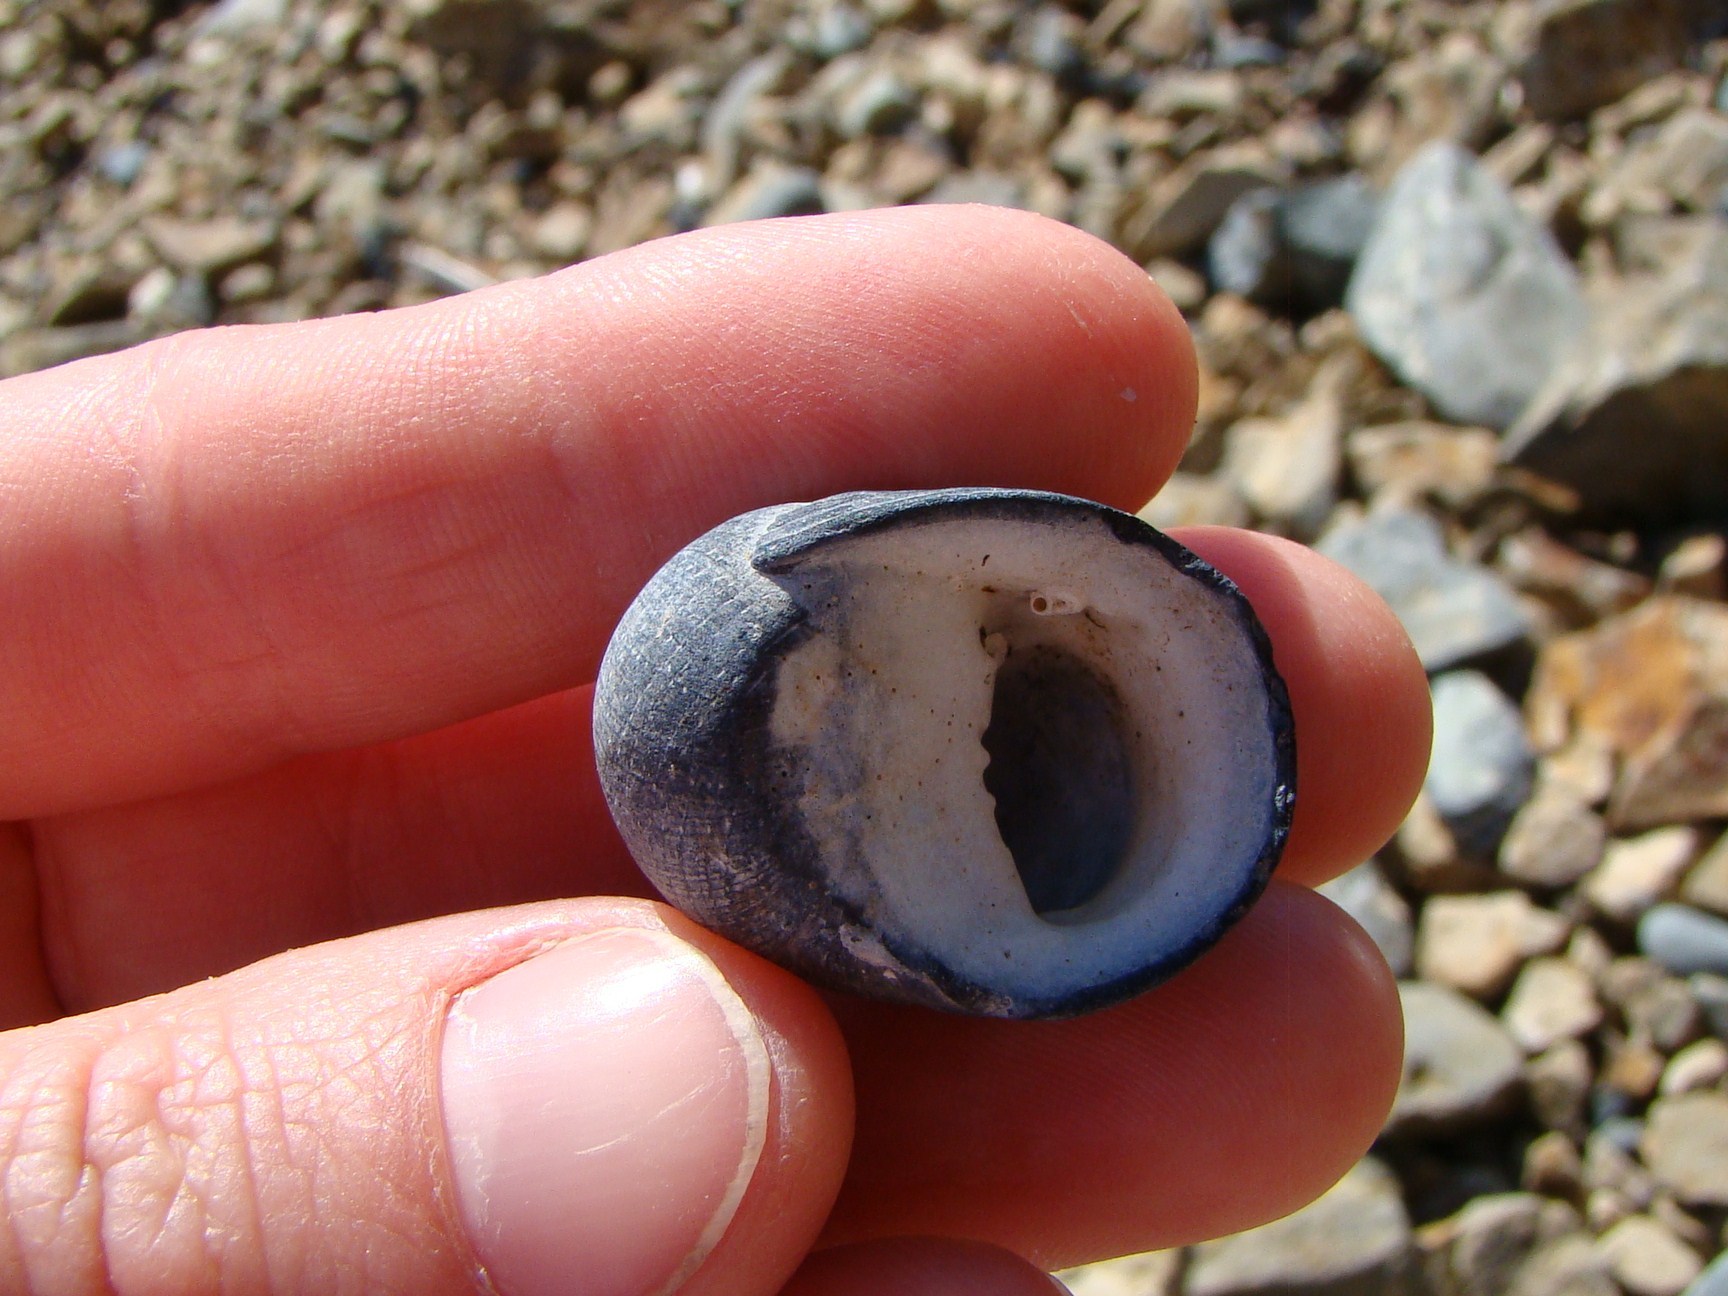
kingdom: Animalia
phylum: Mollusca
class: Gastropoda
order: Cycloneritida
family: Neritidae
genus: Nerita
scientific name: Nerita melanotragus
